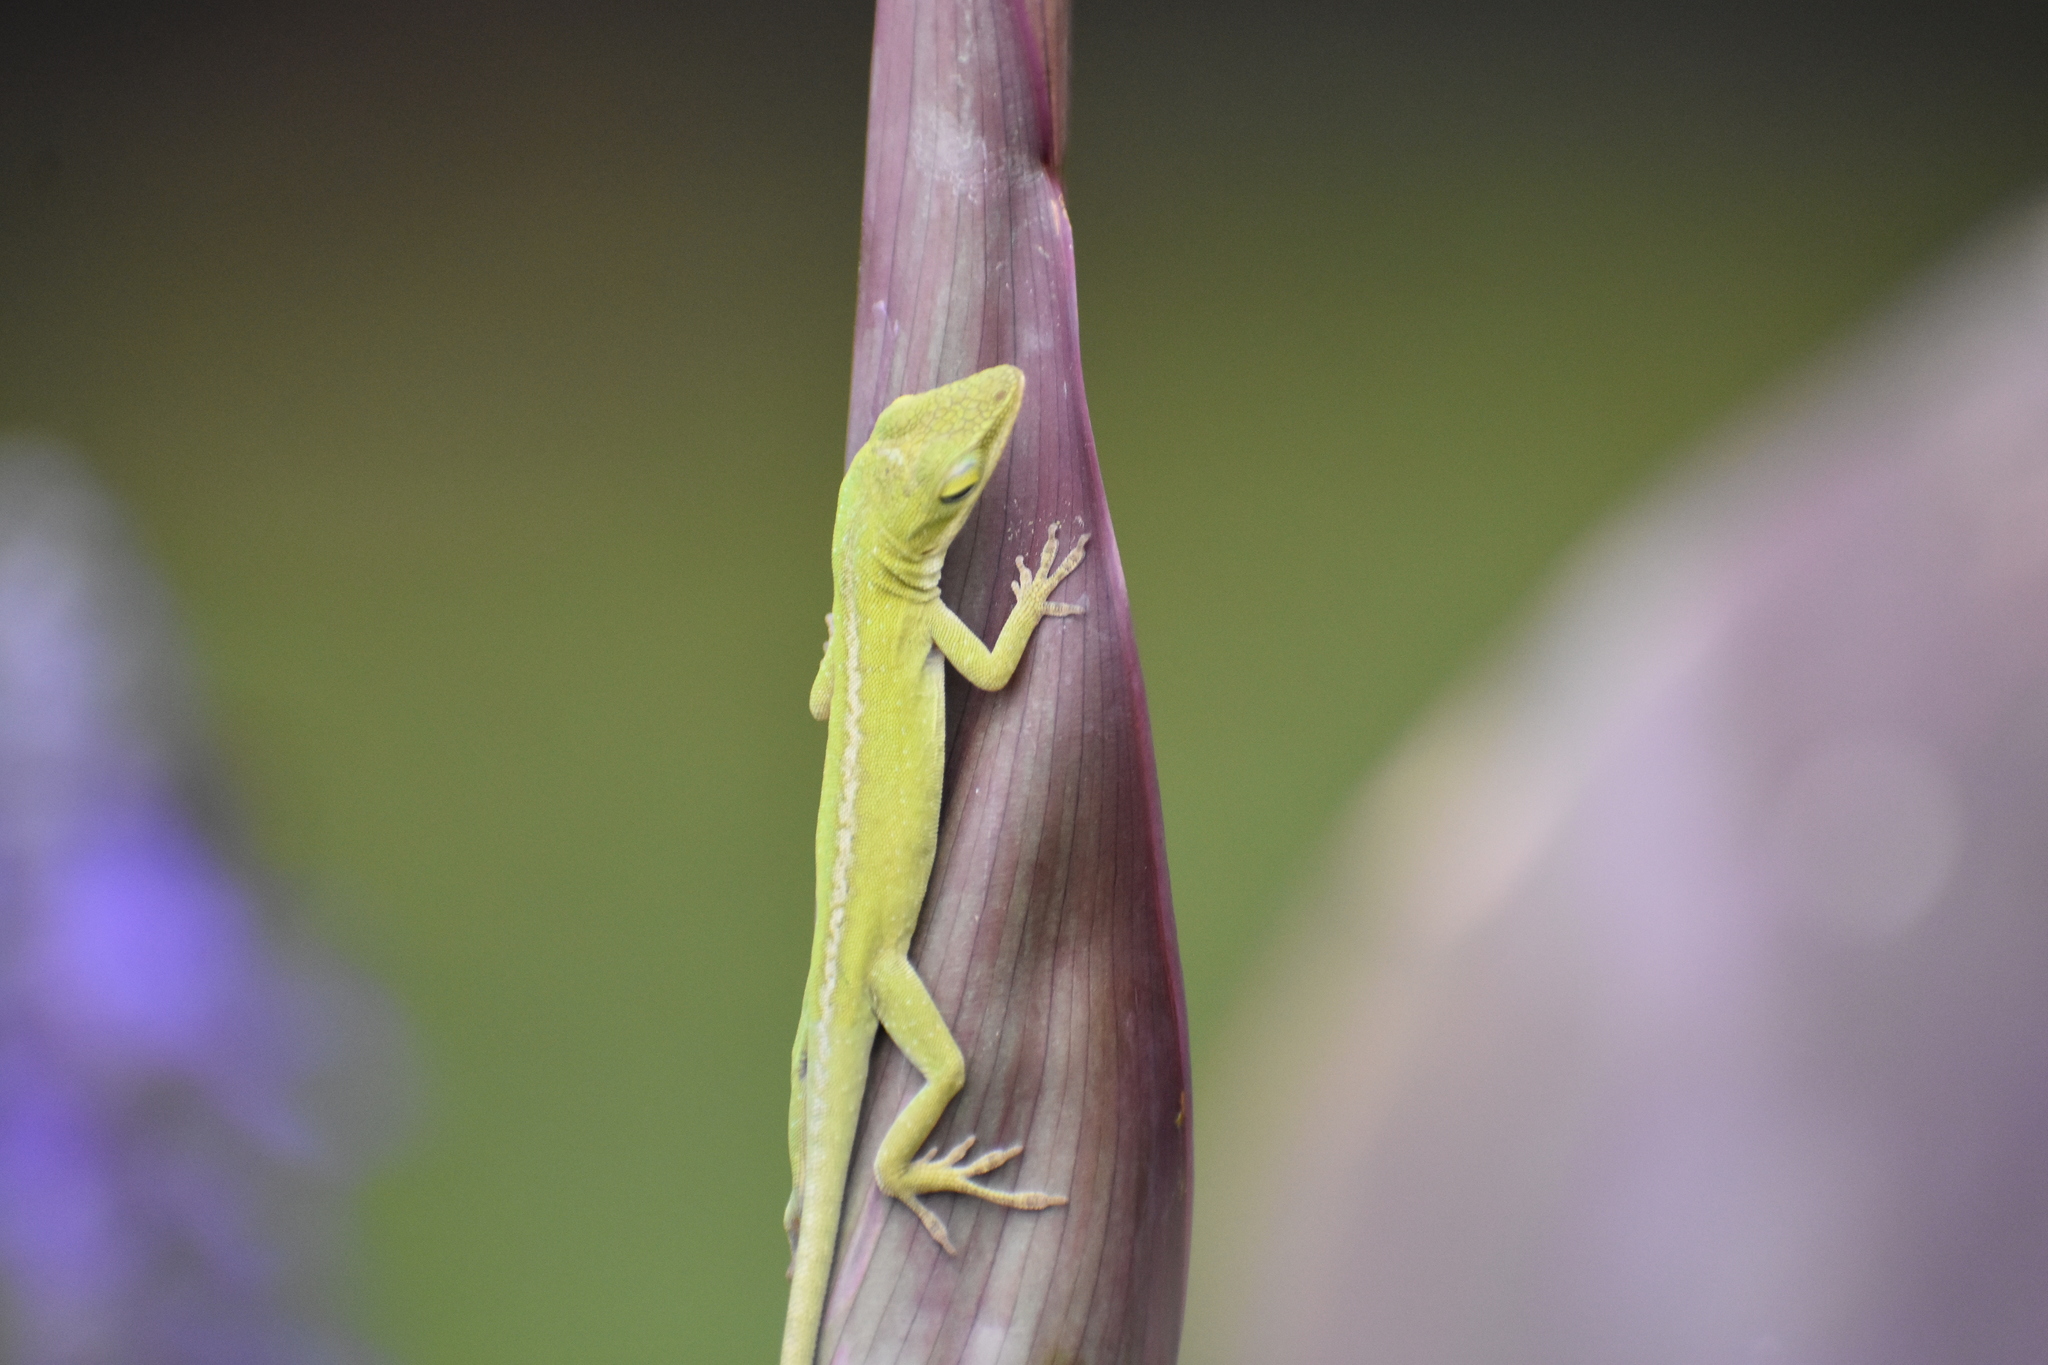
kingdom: Animalia
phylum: Chordata
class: Squamata
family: Dactyloidae
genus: Anolis
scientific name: Anolis carolinensis
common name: Green anole
